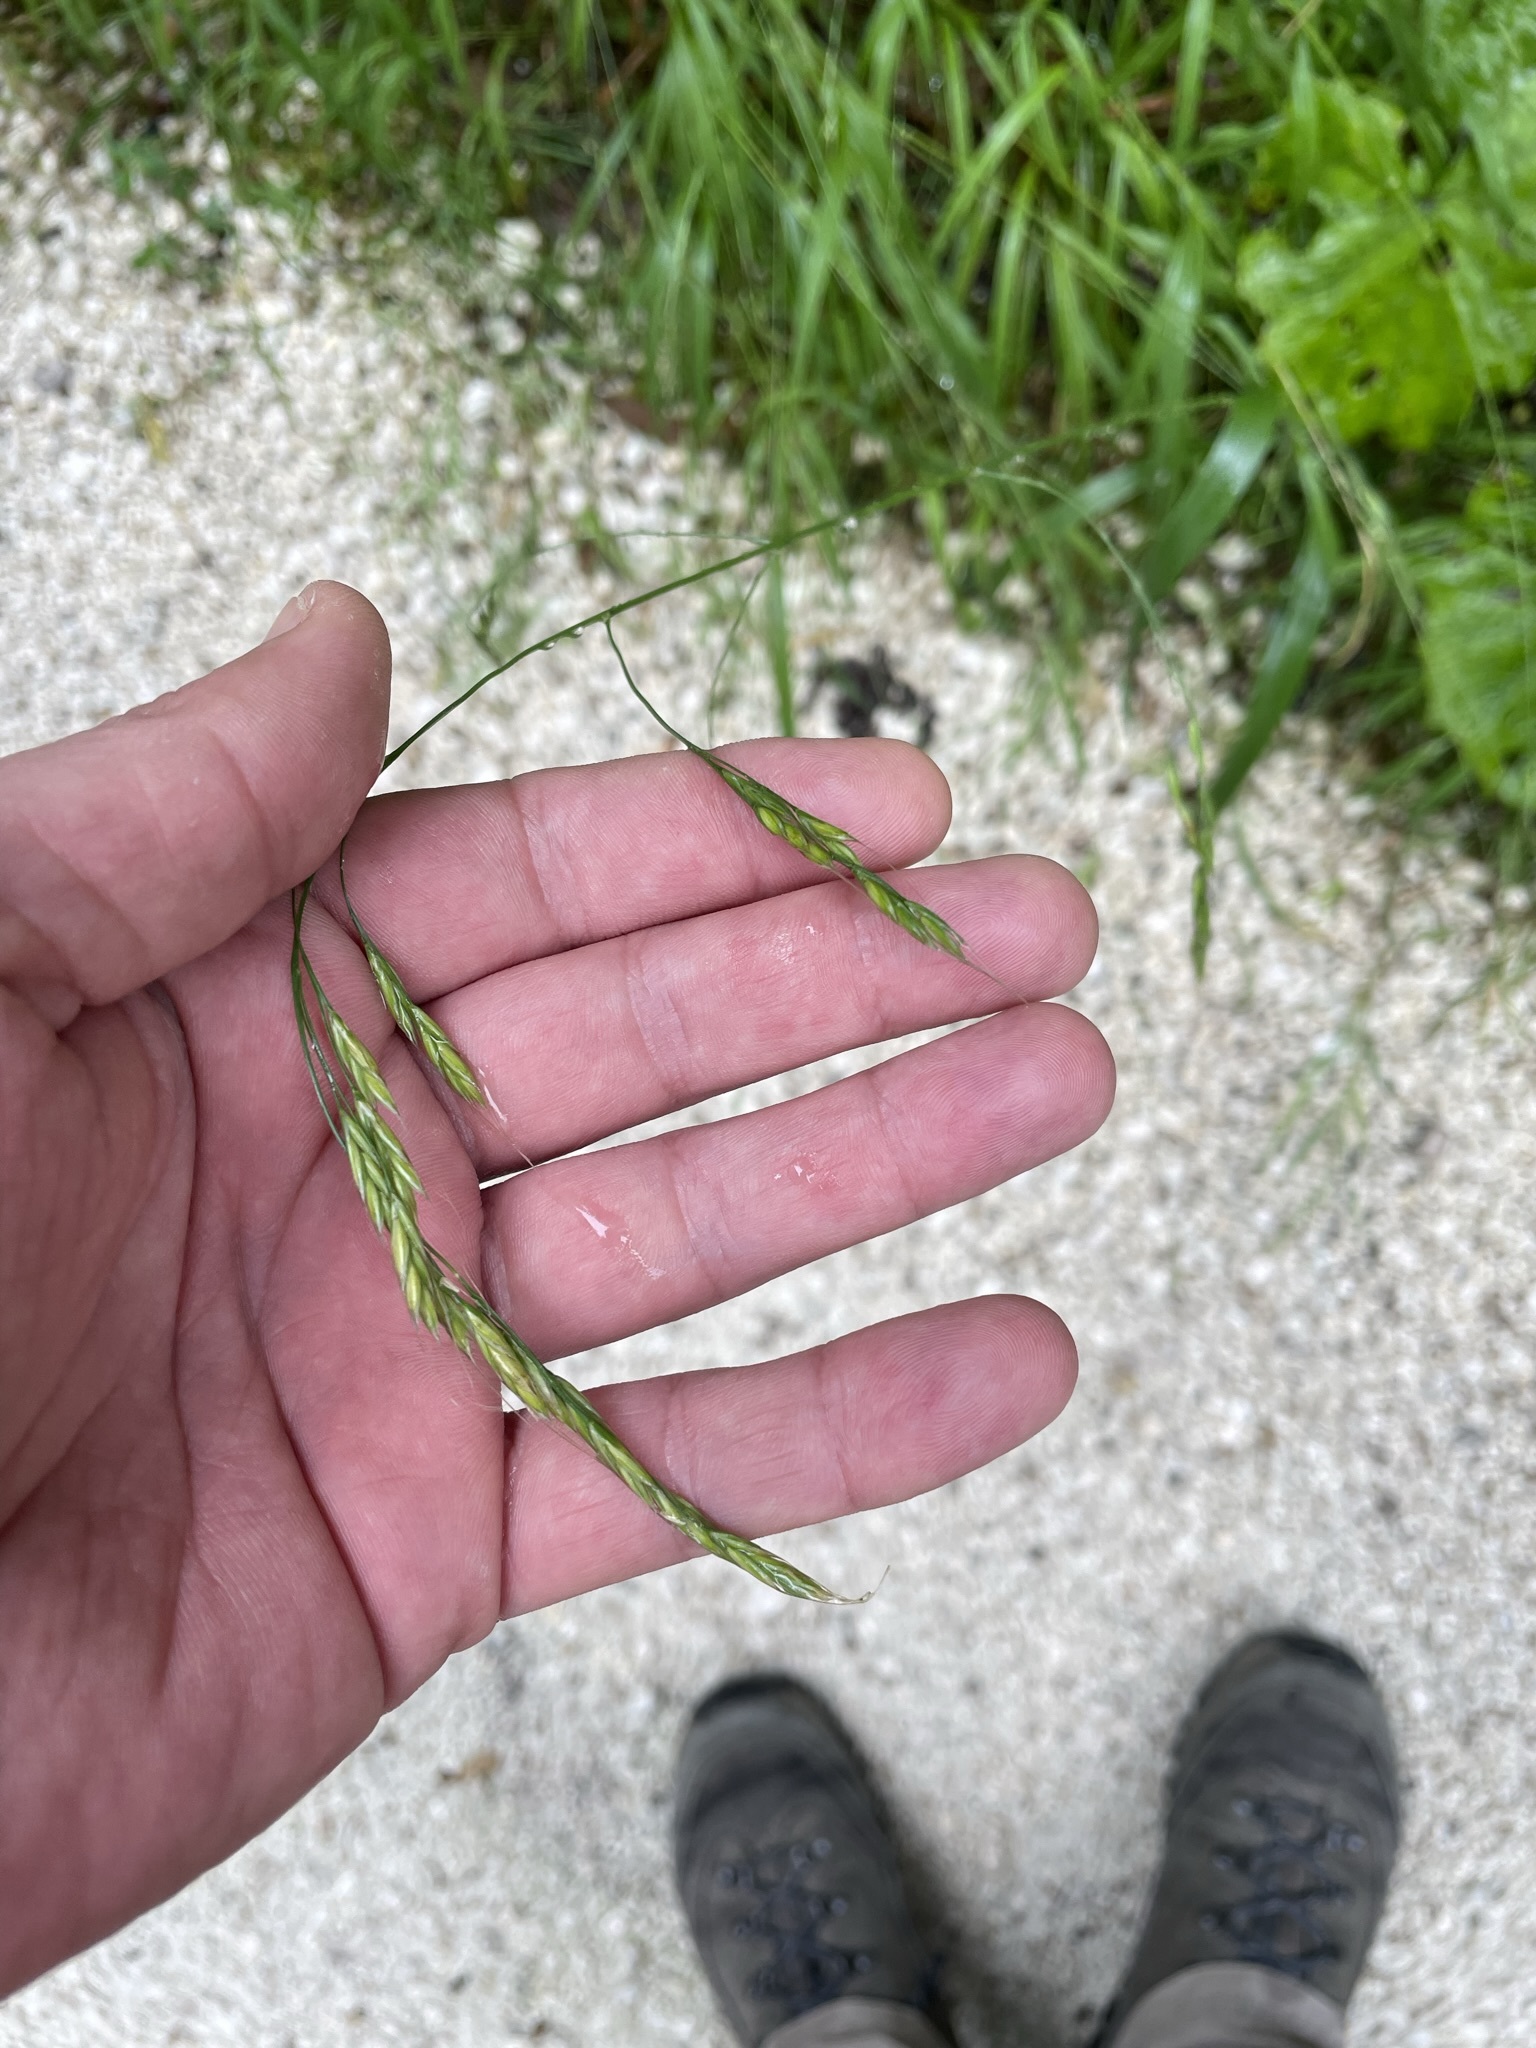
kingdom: Plantae
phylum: Tracheophyta
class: Liliopsida
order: Poales
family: Poaceae
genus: Lolium
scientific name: Lolium giganteum
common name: Giant fescue
